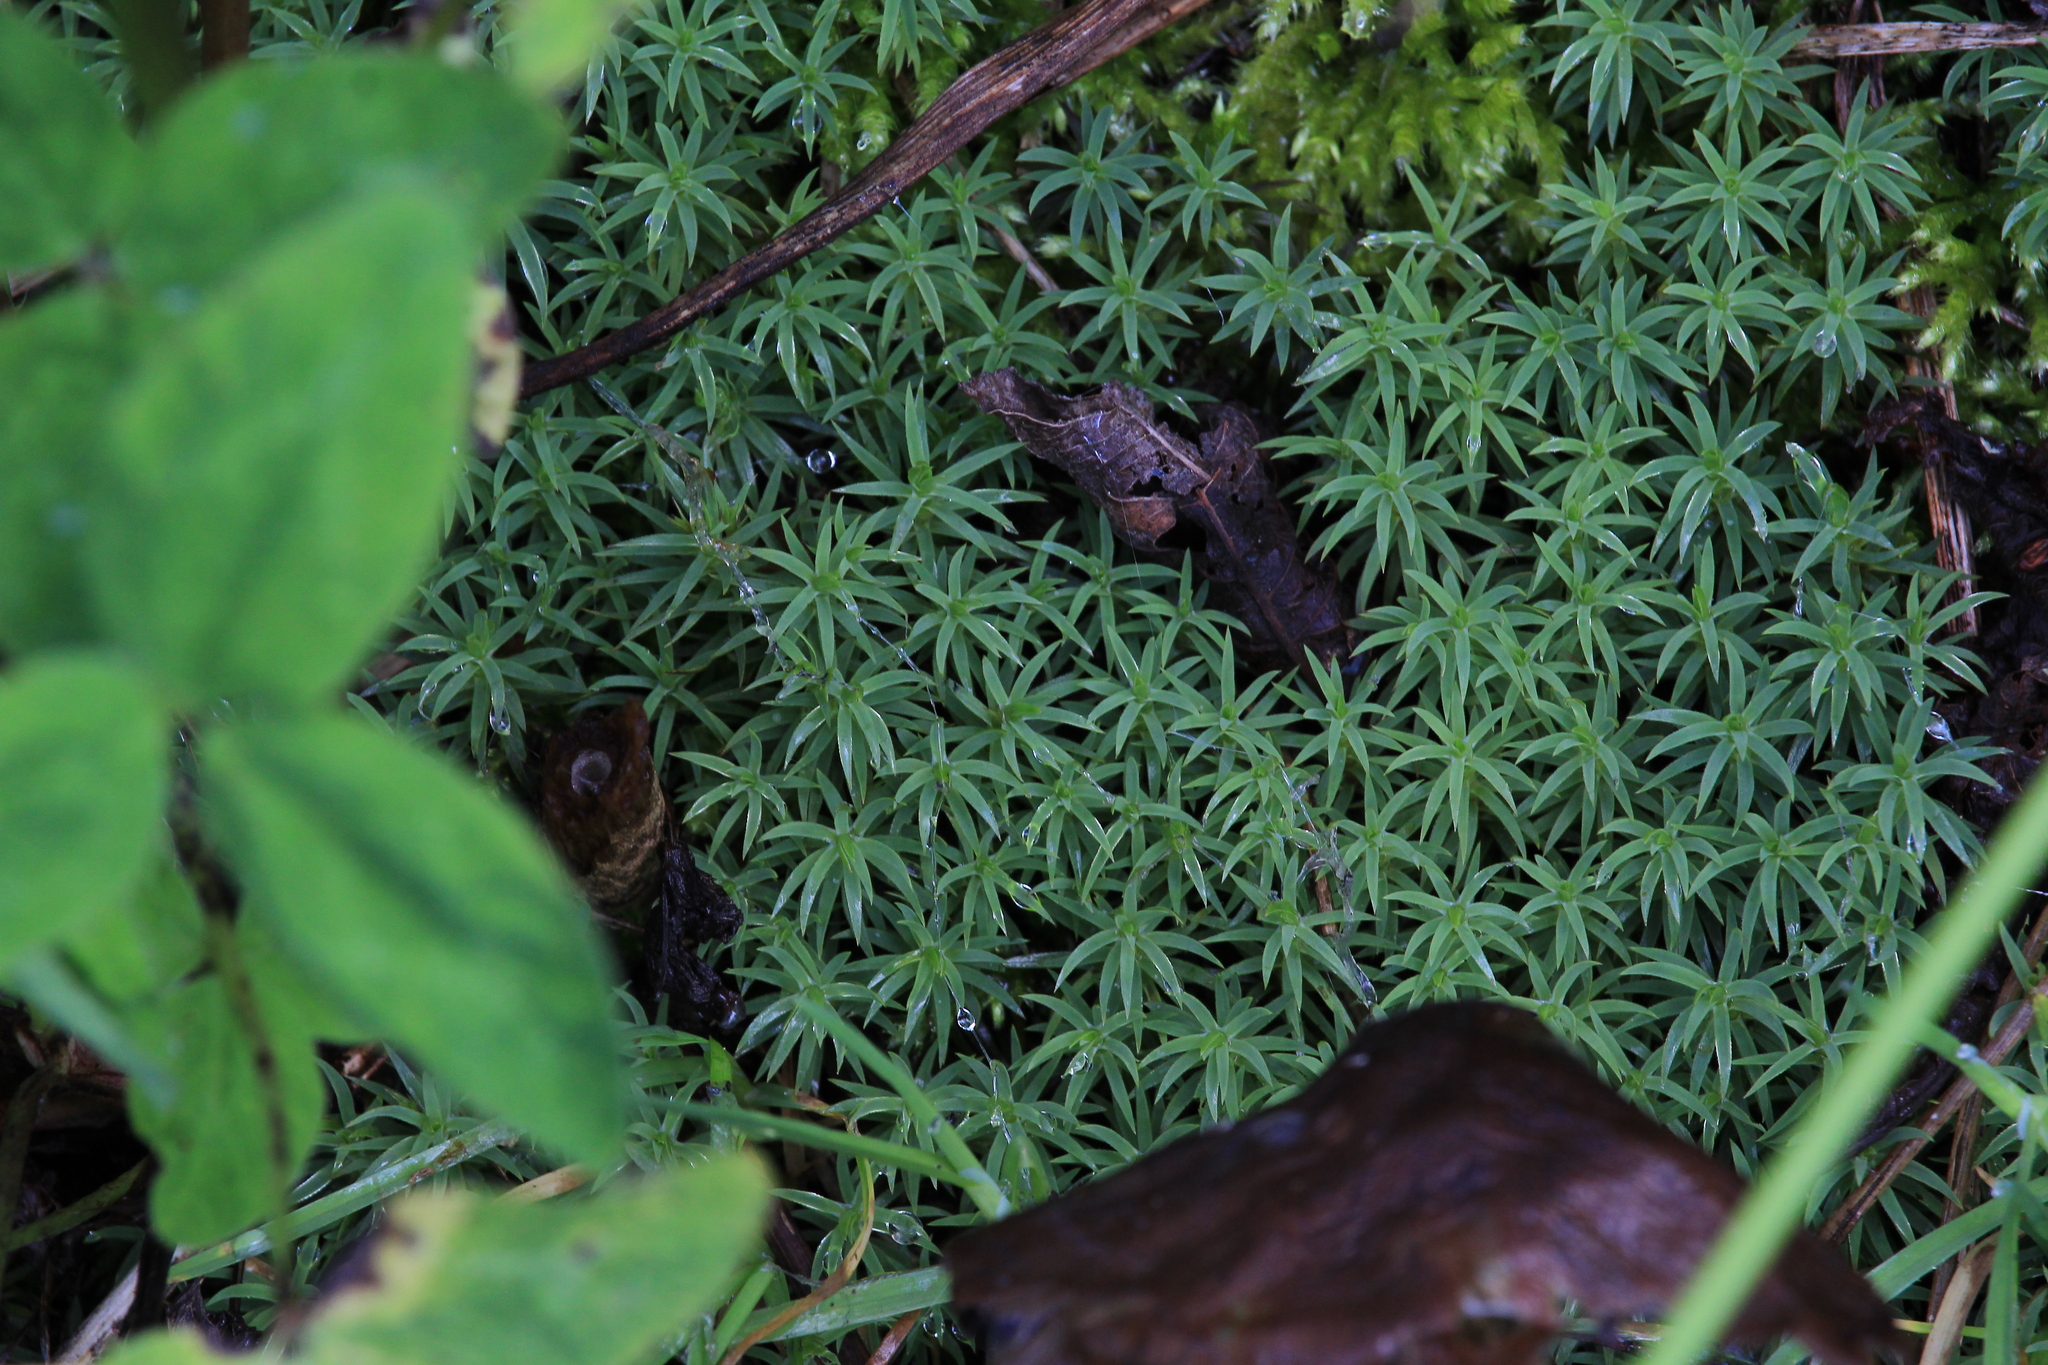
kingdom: Plantae
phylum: Bryophyta
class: Polytrichopsida
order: Polytrichales
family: Polytrichaceae
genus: Pogonatum
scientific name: Pogonatum urnigerum
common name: Urn hair moss
